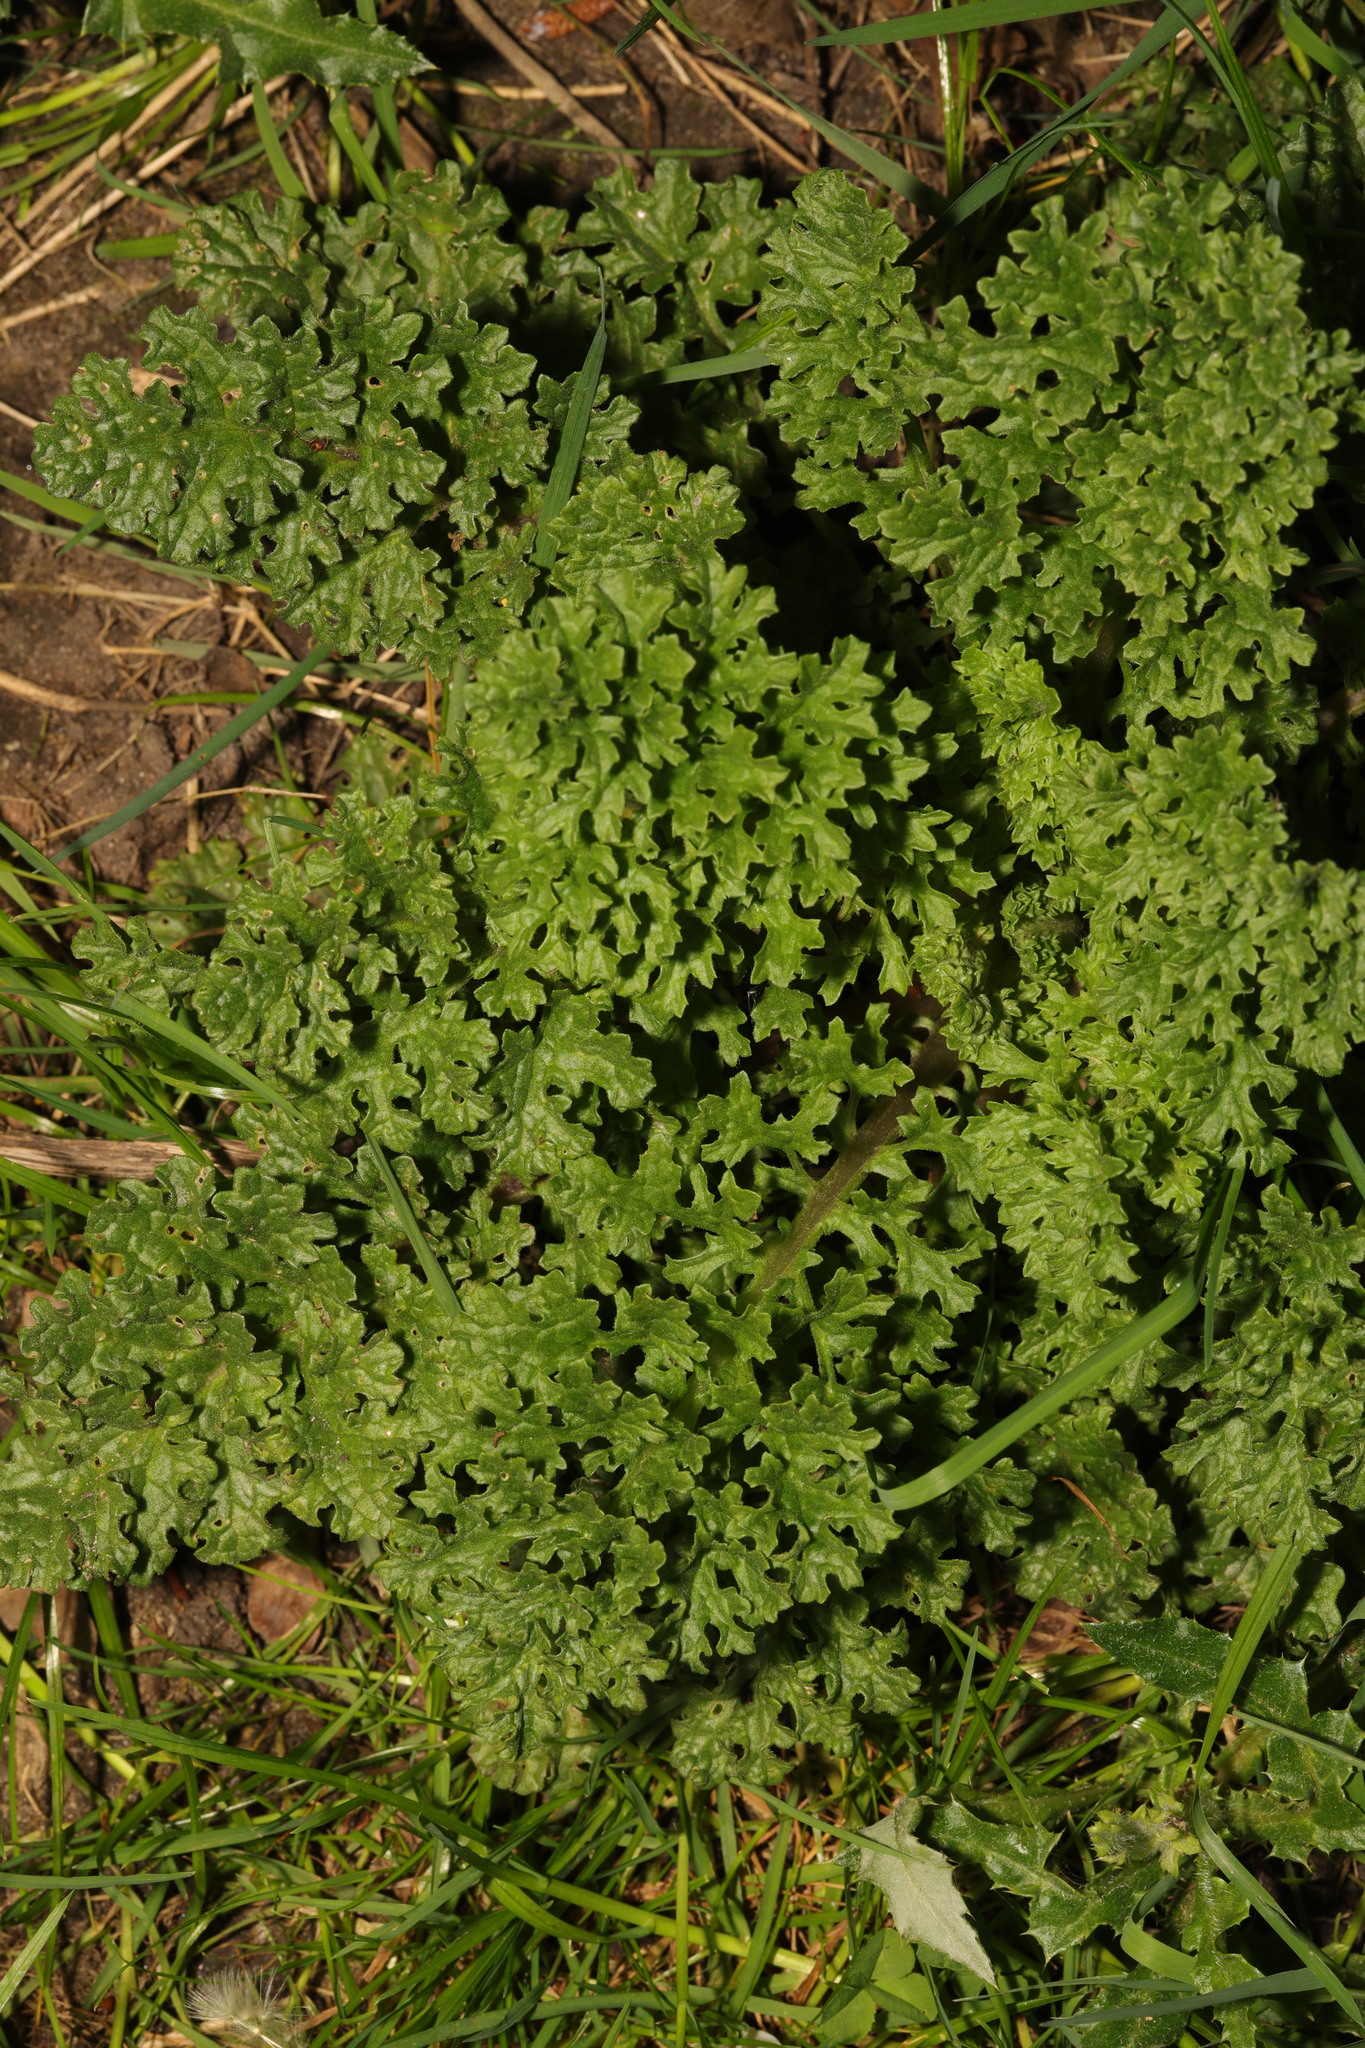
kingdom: Plantae
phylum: Tracheophyta
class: Magnoliopsida
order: Asterales
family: Asteraceae
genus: Jacobaea
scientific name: Jacobaea vulgaris
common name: Stinking willie
